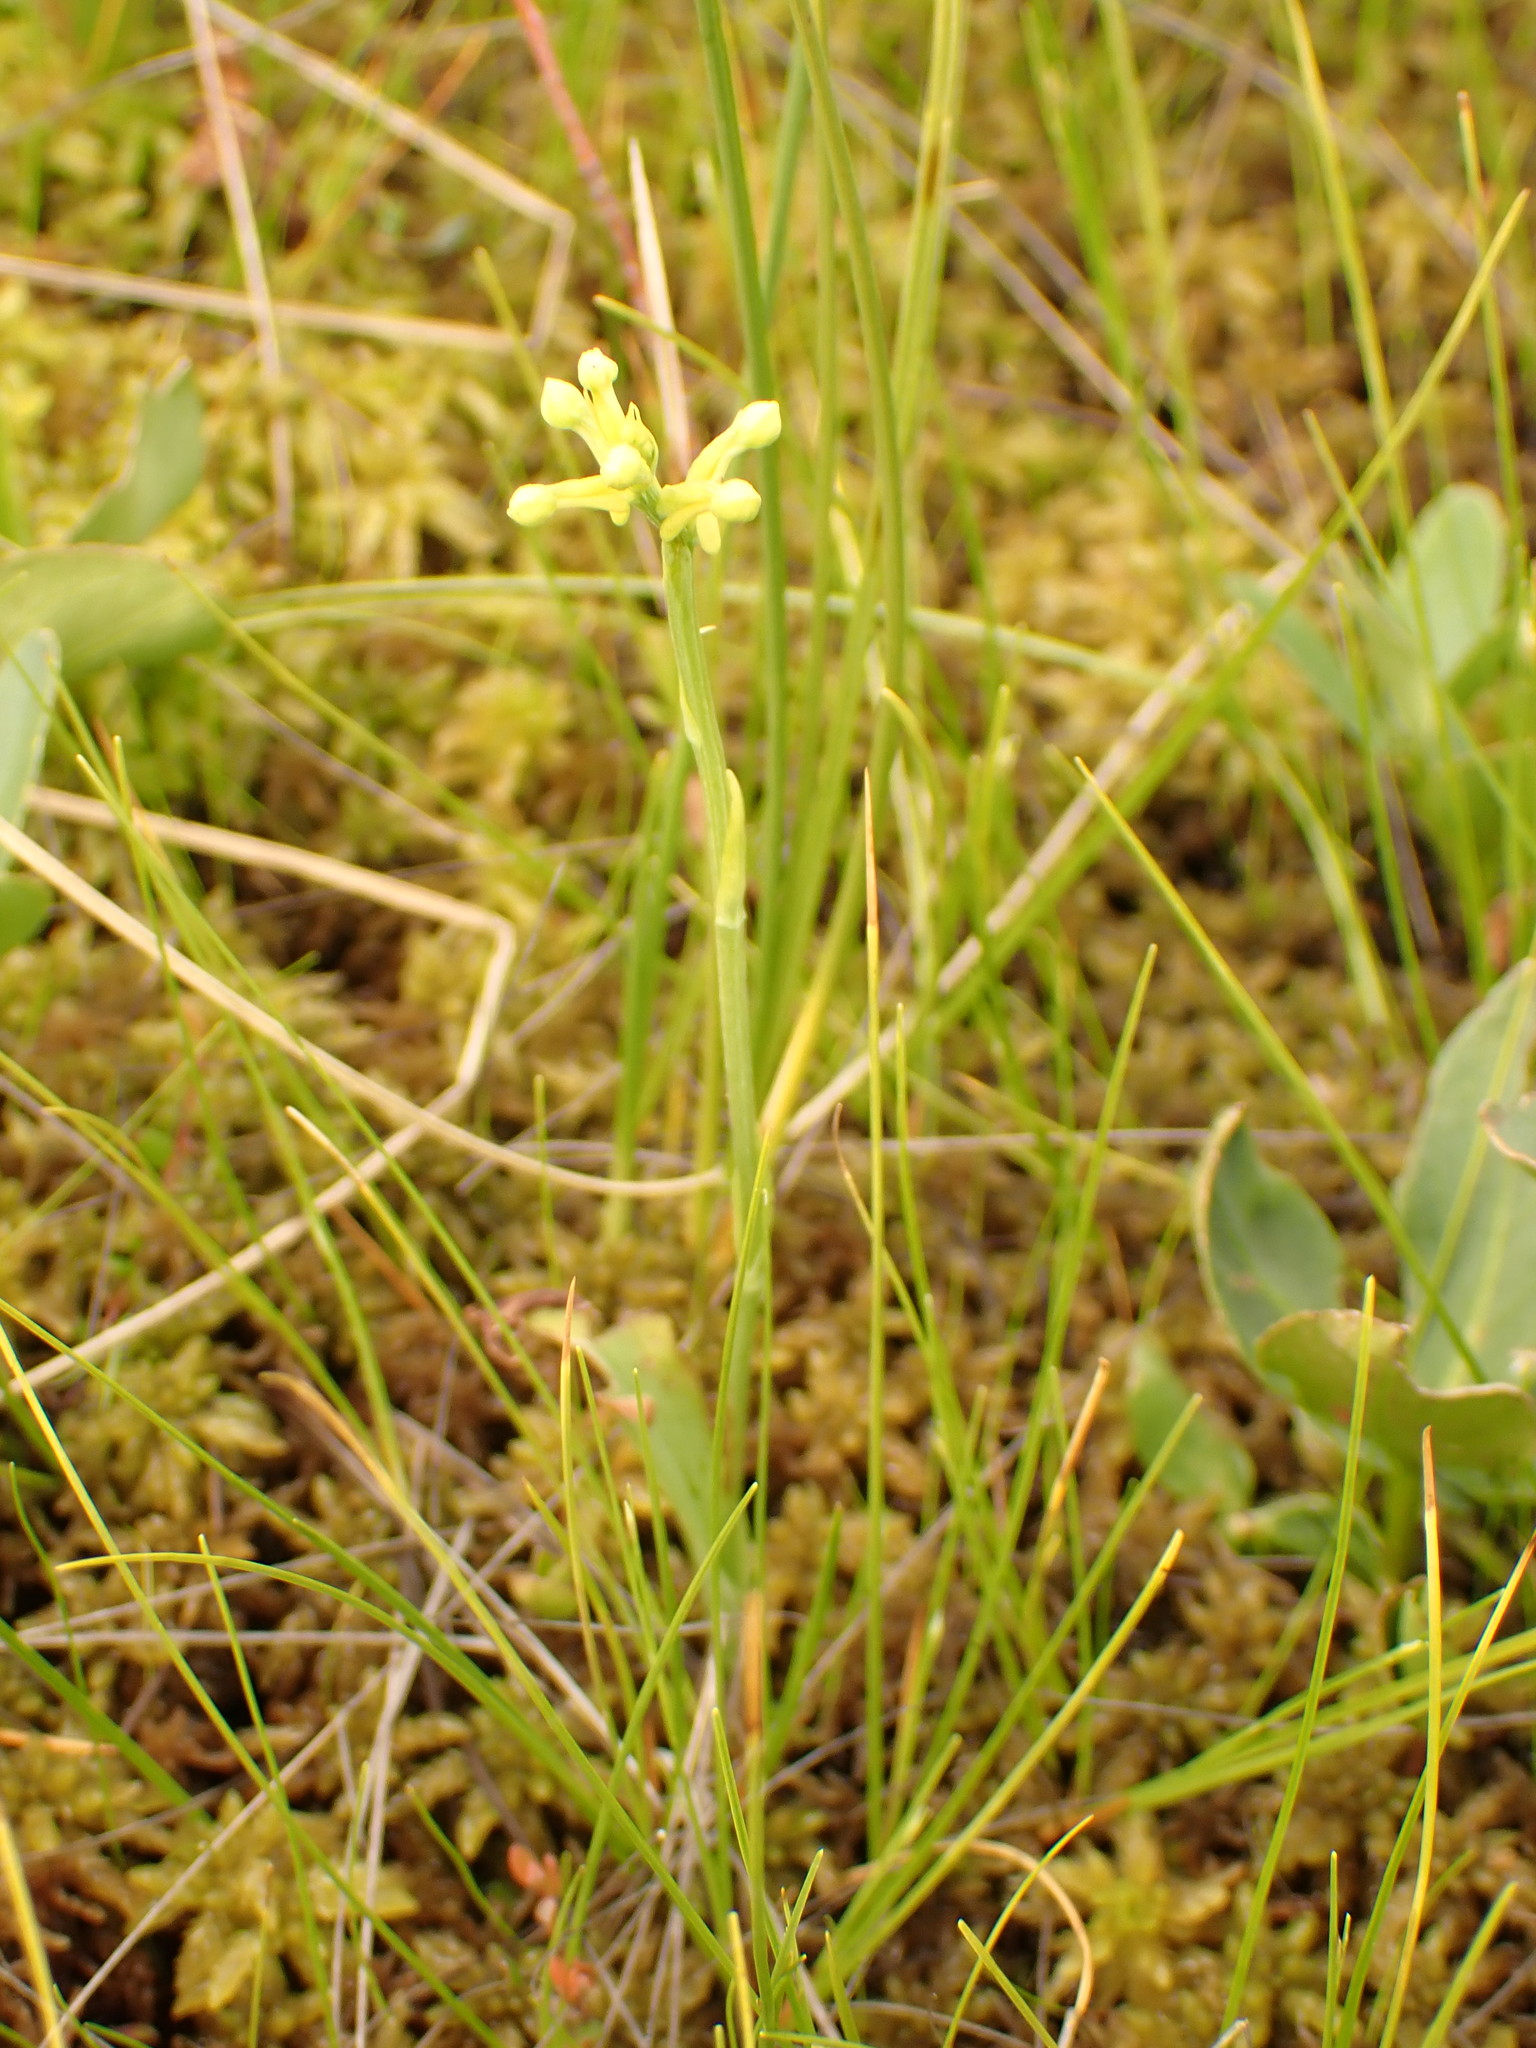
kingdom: Plantae
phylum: Tracheophyta
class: Liliopsida
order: Asparagales
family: Orchidaceae
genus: Platanthera
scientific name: Platanthera clavellata
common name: Club-spur orchid
